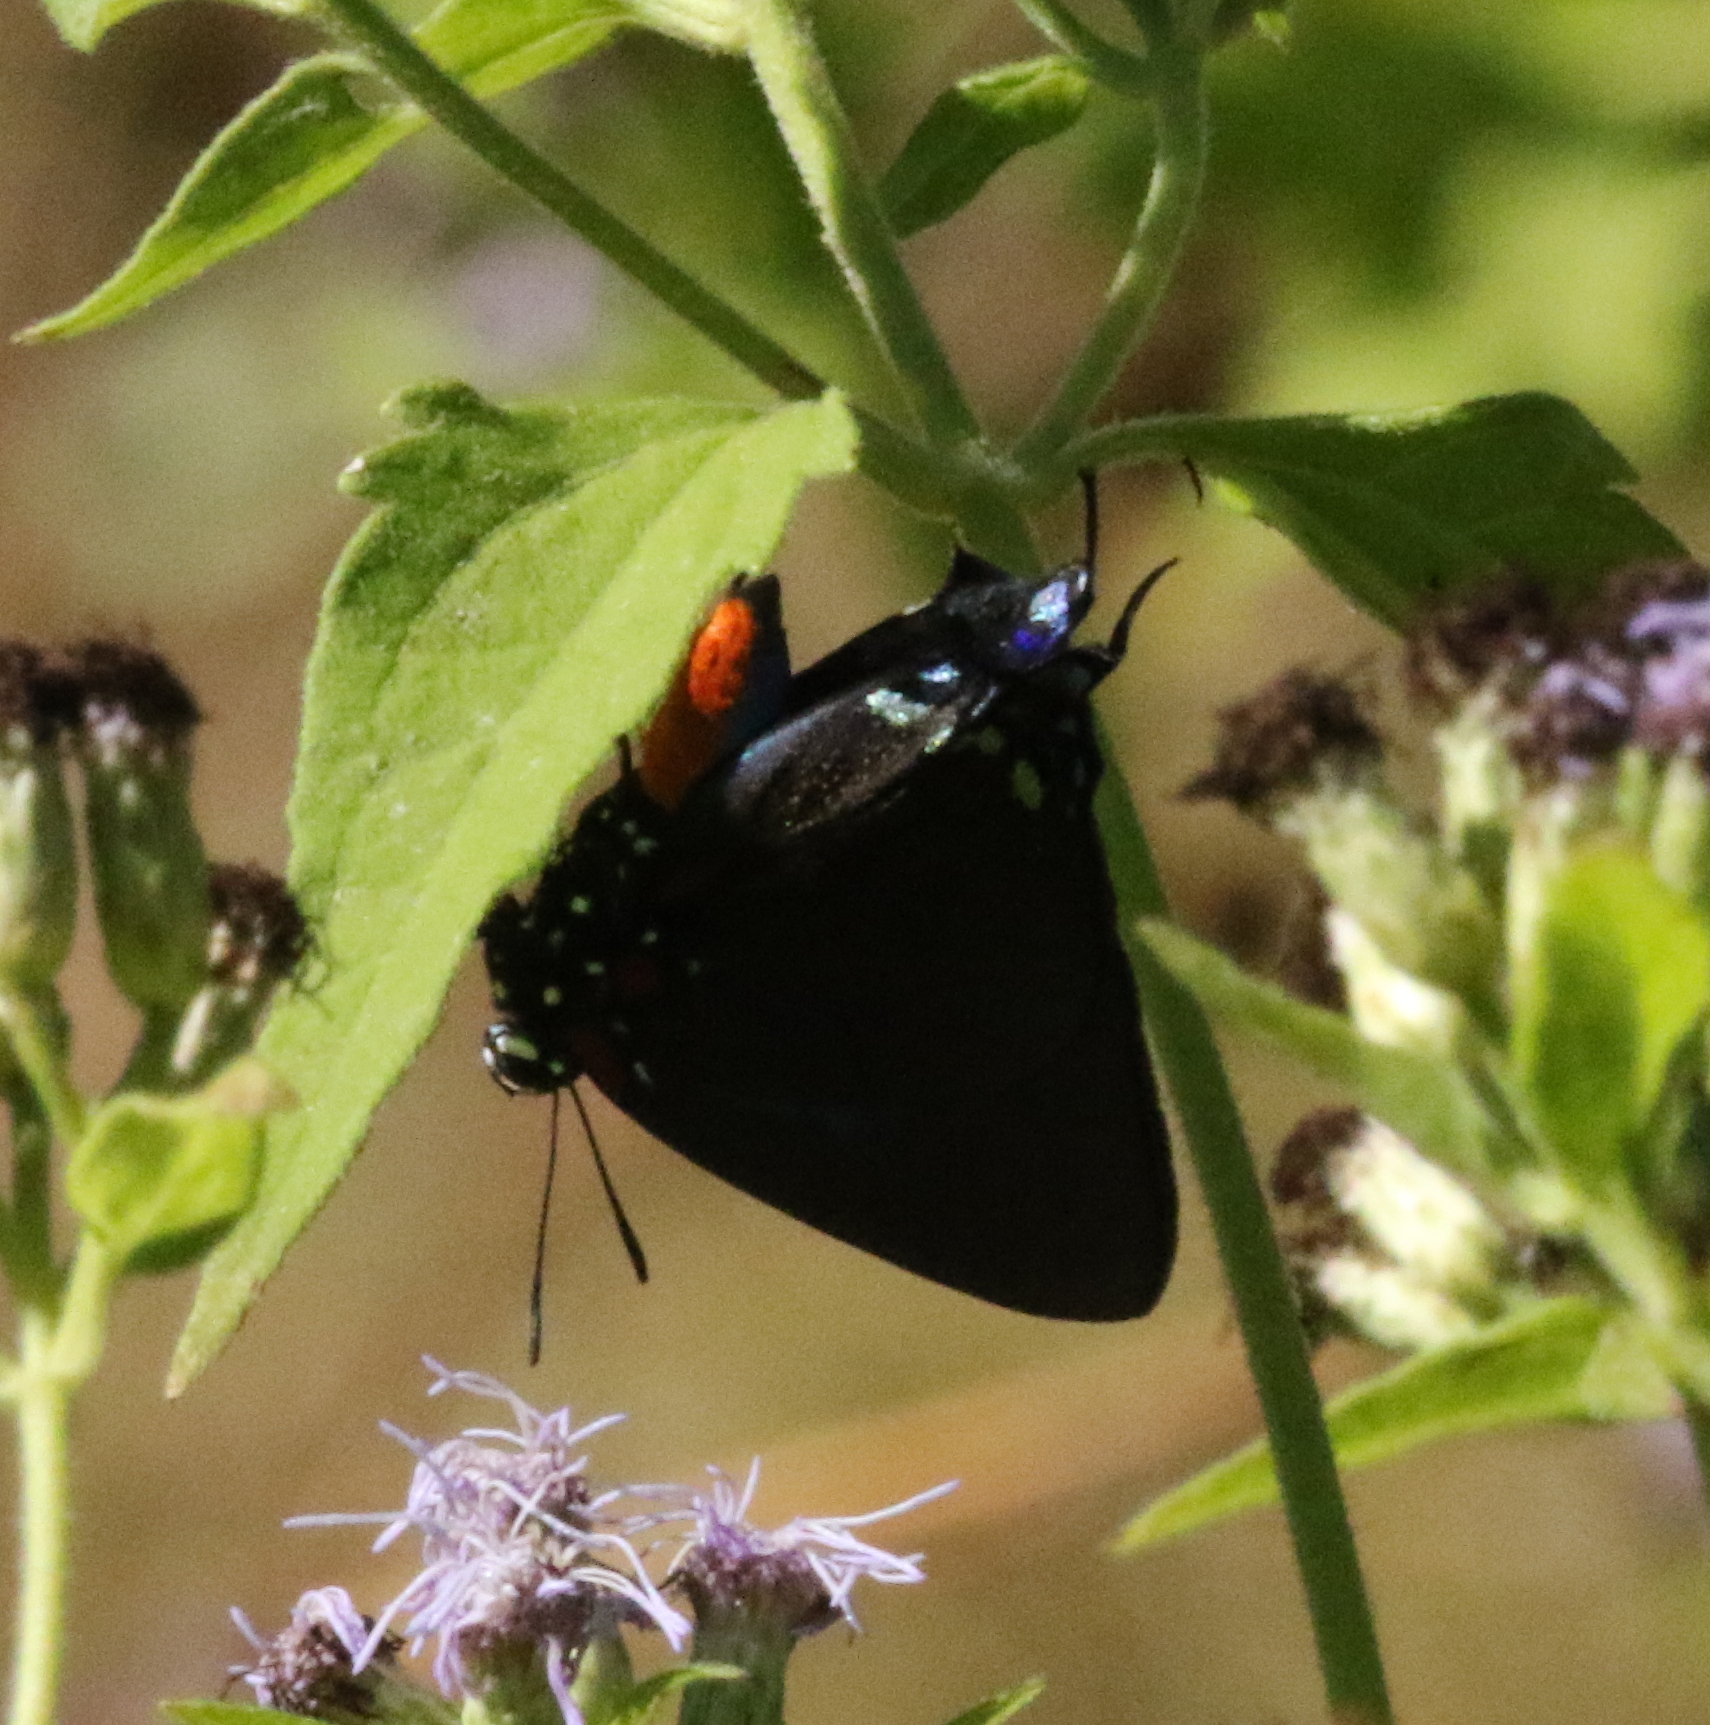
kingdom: Animalia
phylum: Arthropoda
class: Insecta
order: Lepidoptera
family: Lycaenidae
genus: Atlides
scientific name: Atlides halesus
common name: Great purple hairstreak
